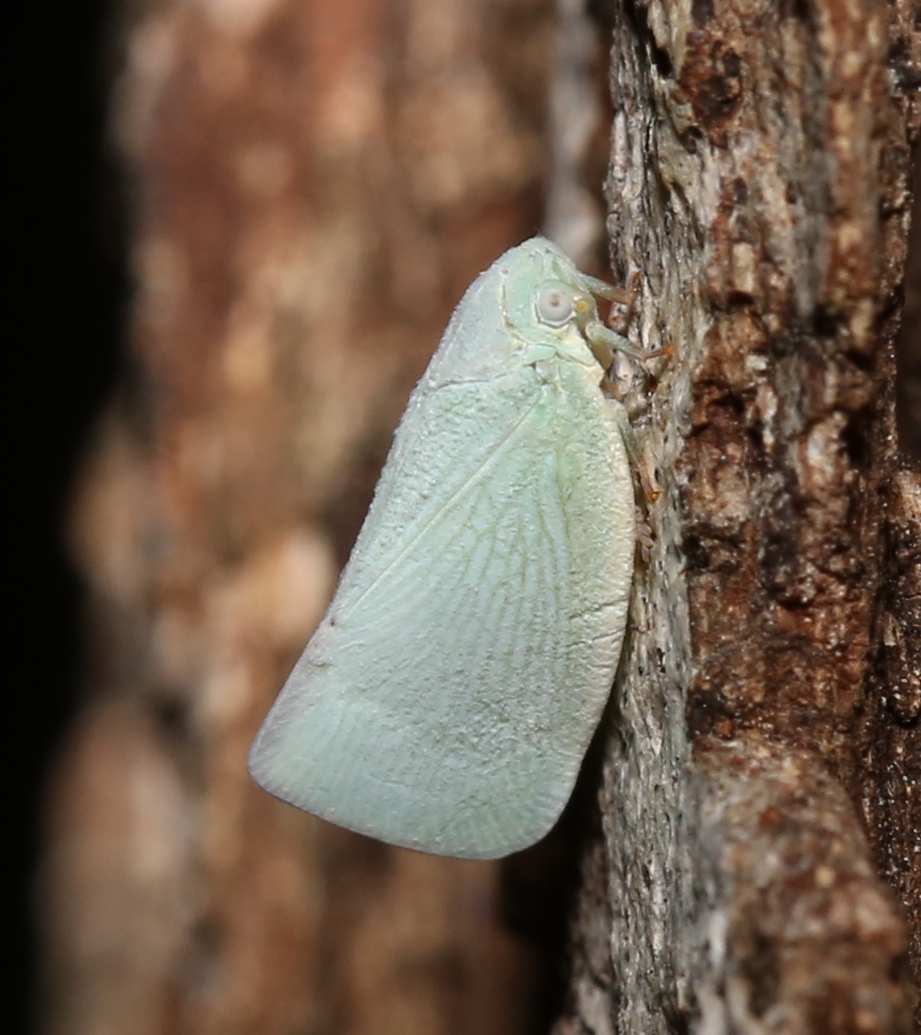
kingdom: Animalia
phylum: Arthropoda
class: Insecta
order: Hemiptera
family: Flatidae
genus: Flatormenis
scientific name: Flatormenis proxima
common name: Northern flatid planthopper
